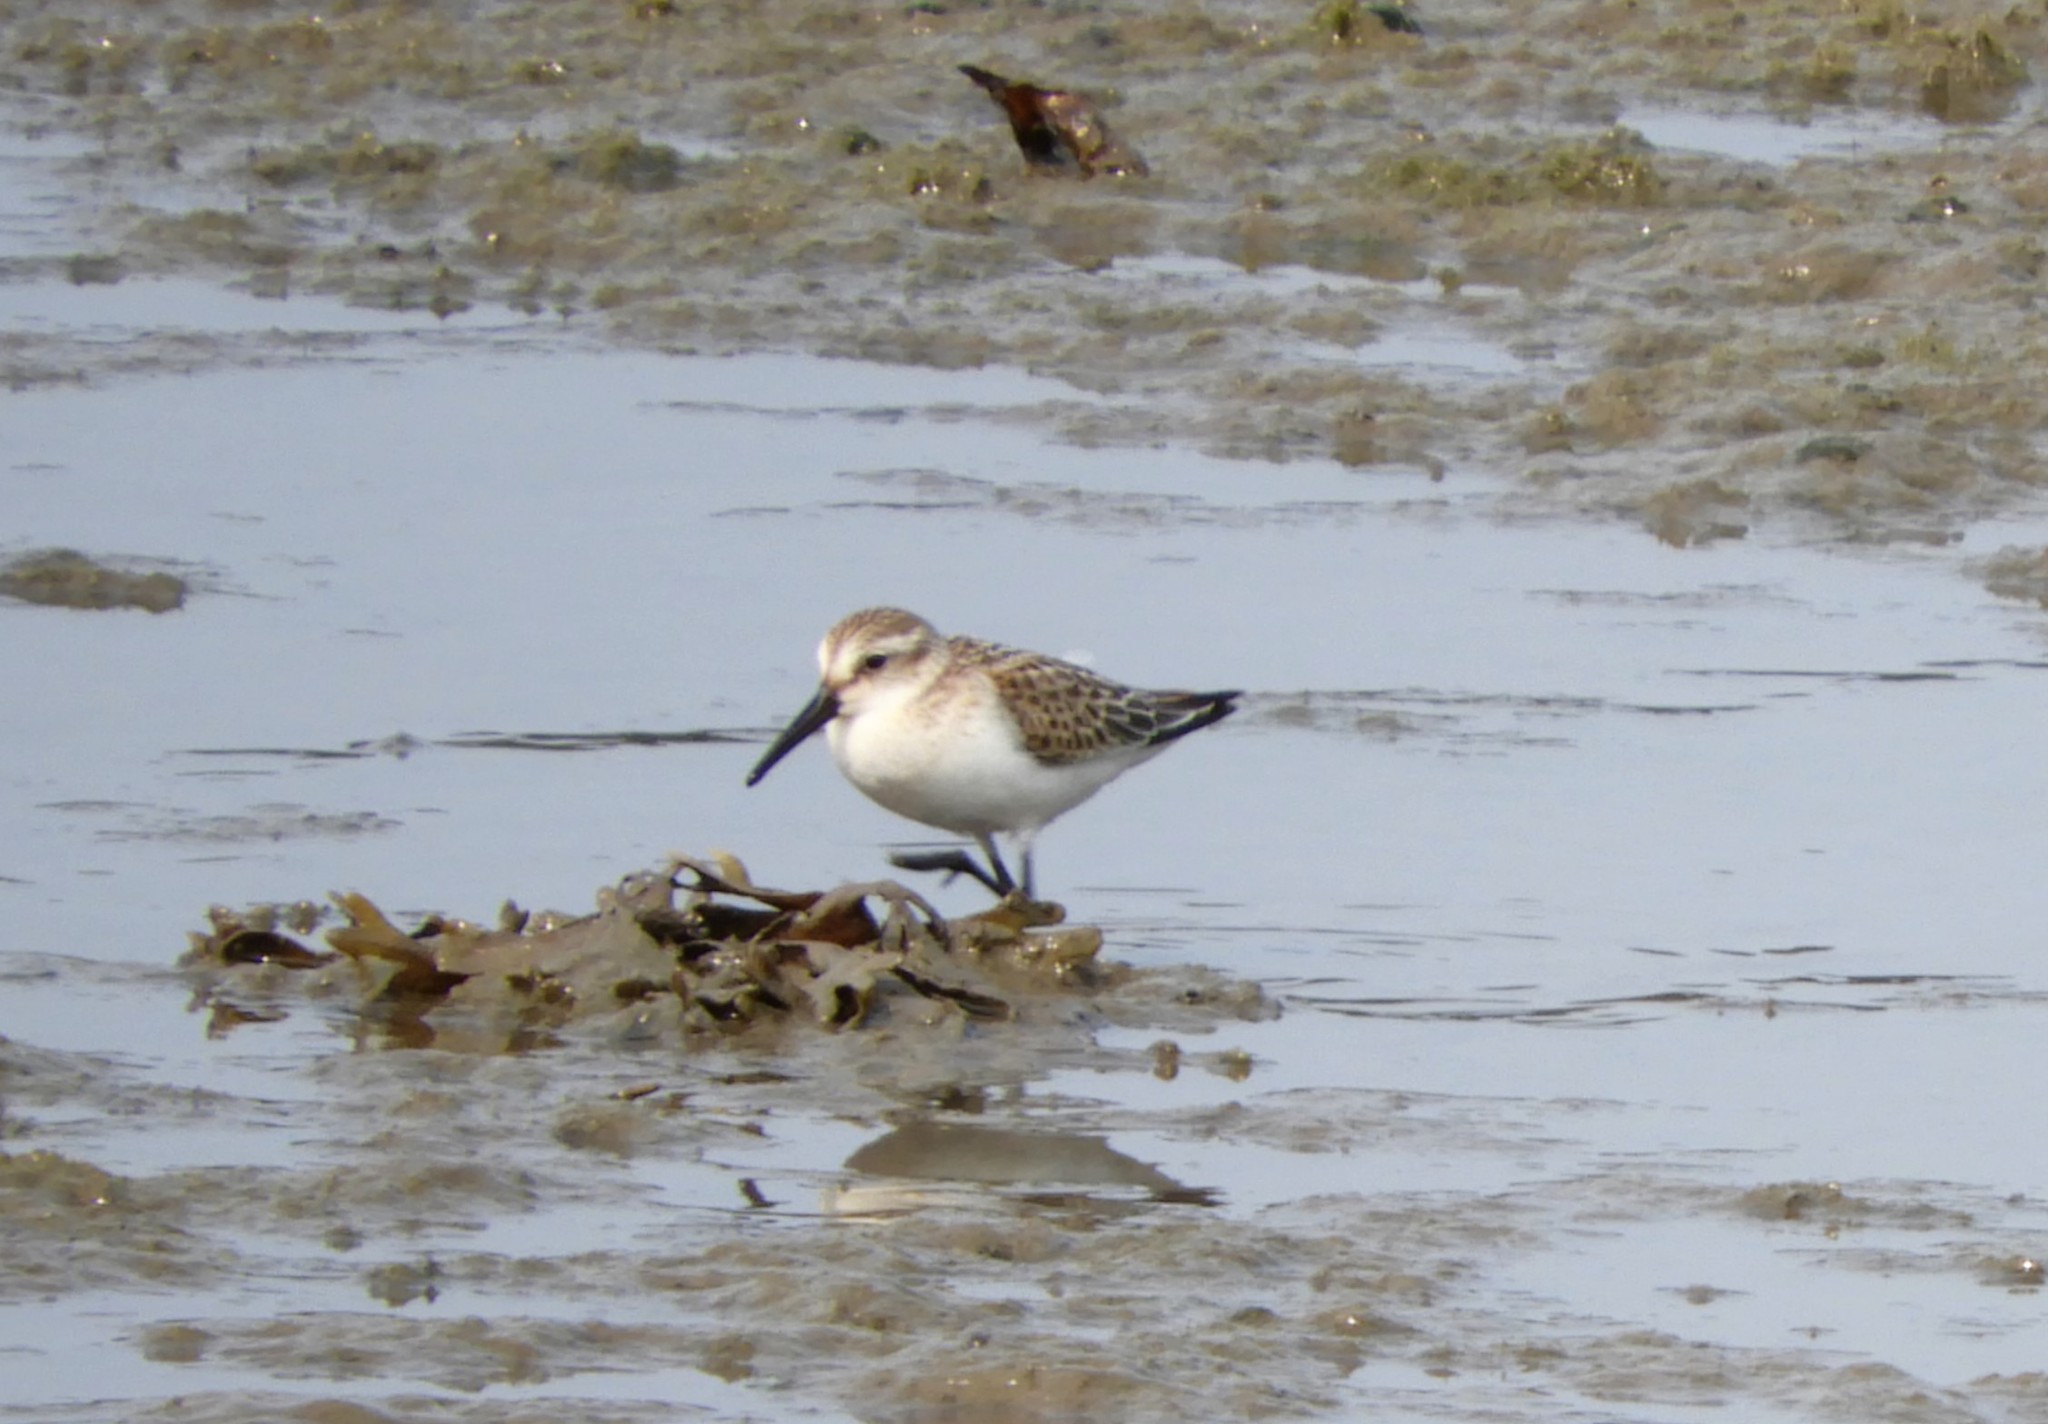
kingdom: Animalia
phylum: Chordata
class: Aves
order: Charadriiformes
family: Scolopacidae
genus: Calidris
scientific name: Calidris mauri
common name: Western sandpiper
